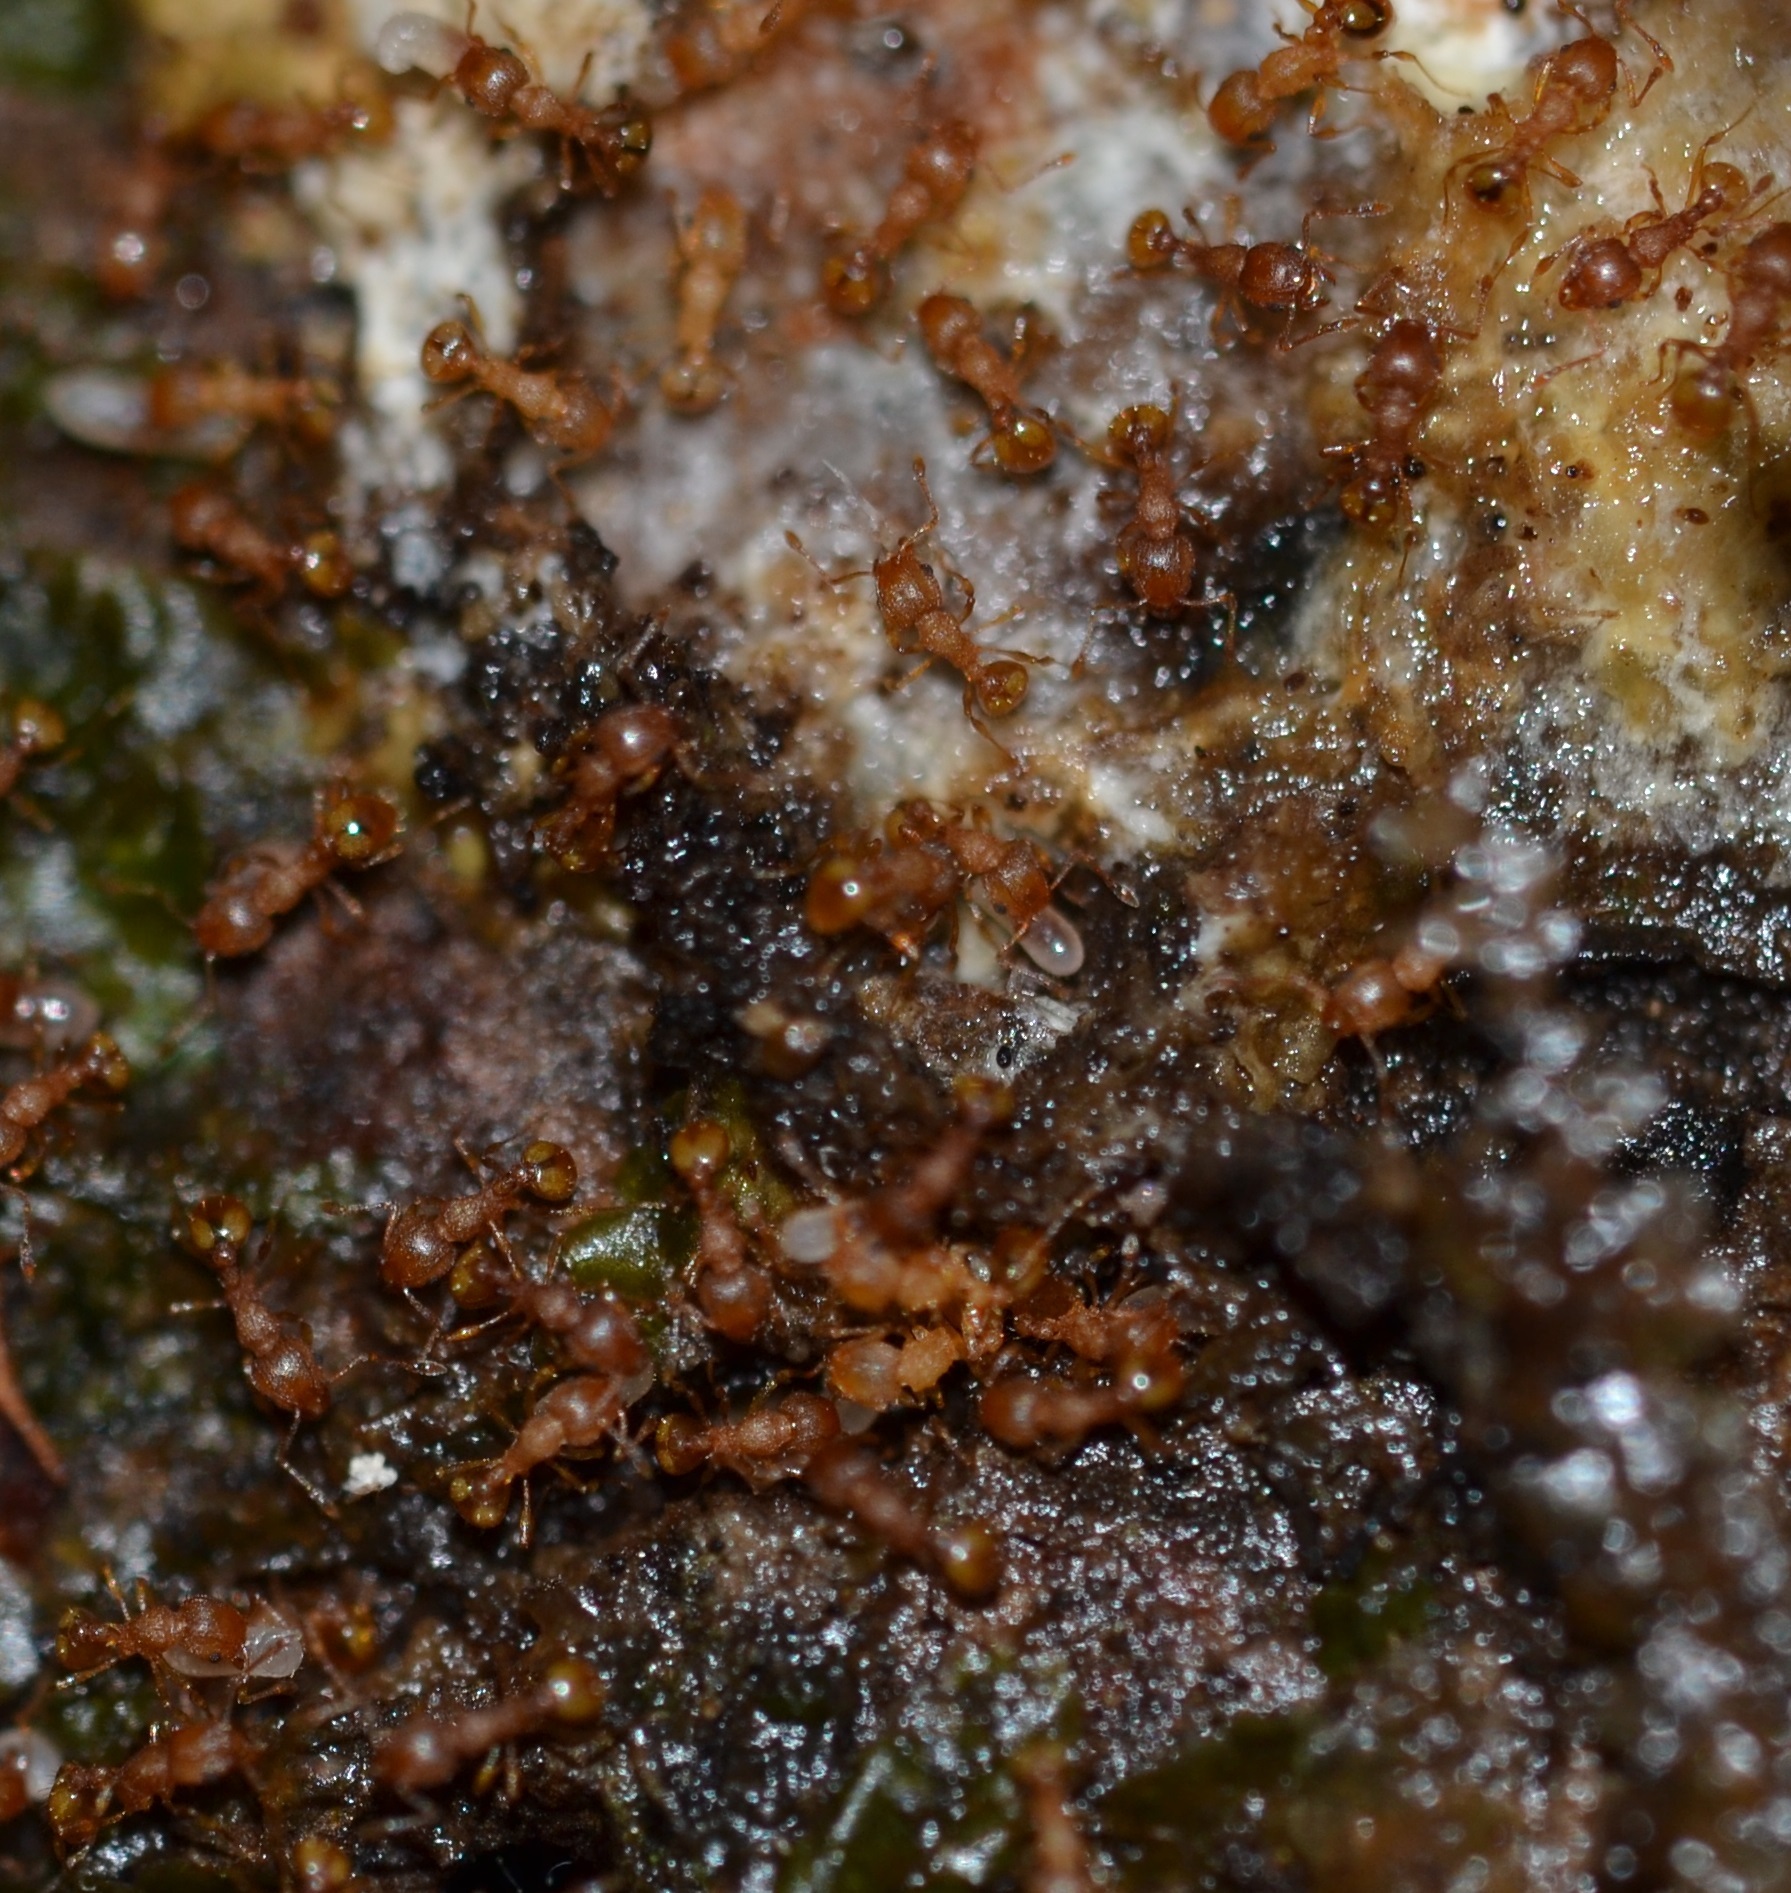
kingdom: Animalia
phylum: Arthropoda
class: Insecta
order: Hymenoptera
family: Formicidae
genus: Wasmannia
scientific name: Wasmannia auropunctata
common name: Little fire ant
